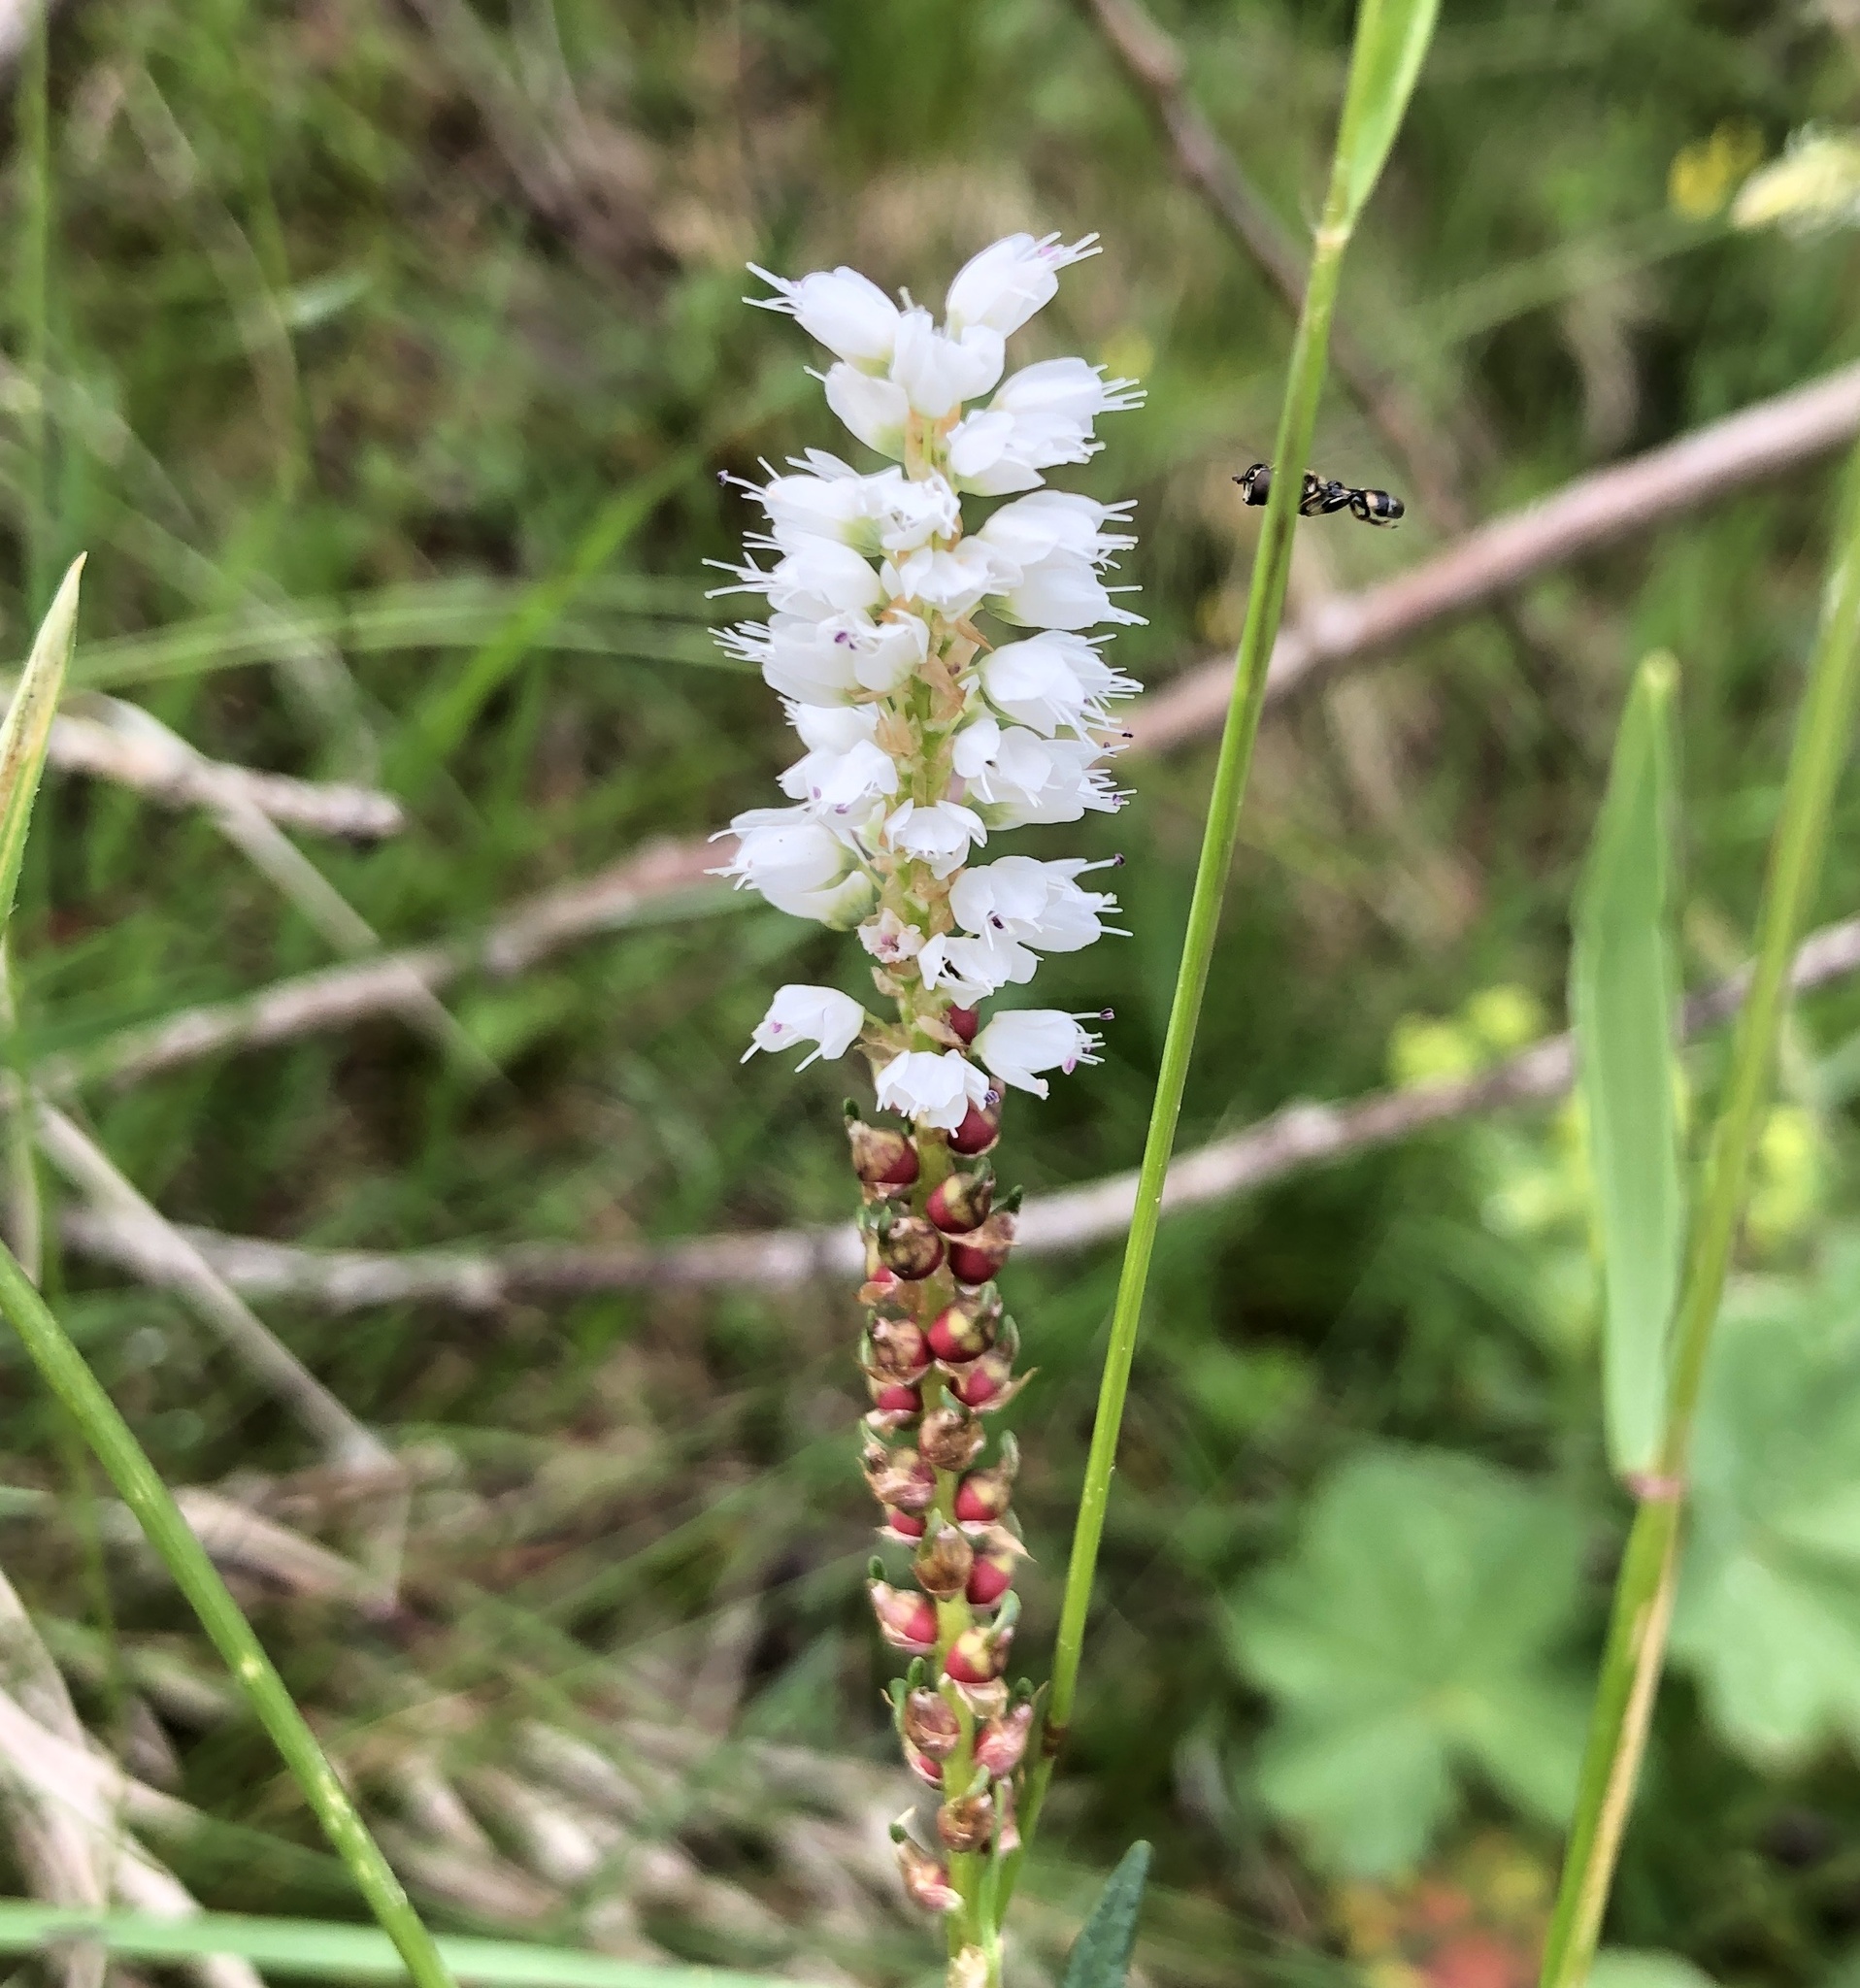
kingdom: Plantae
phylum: Tracheophyta
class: Magnoliopsida
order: Caryophyllales
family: Polygonaceae
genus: Bistorta
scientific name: Bistorta vivipara
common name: Alpine bistort
